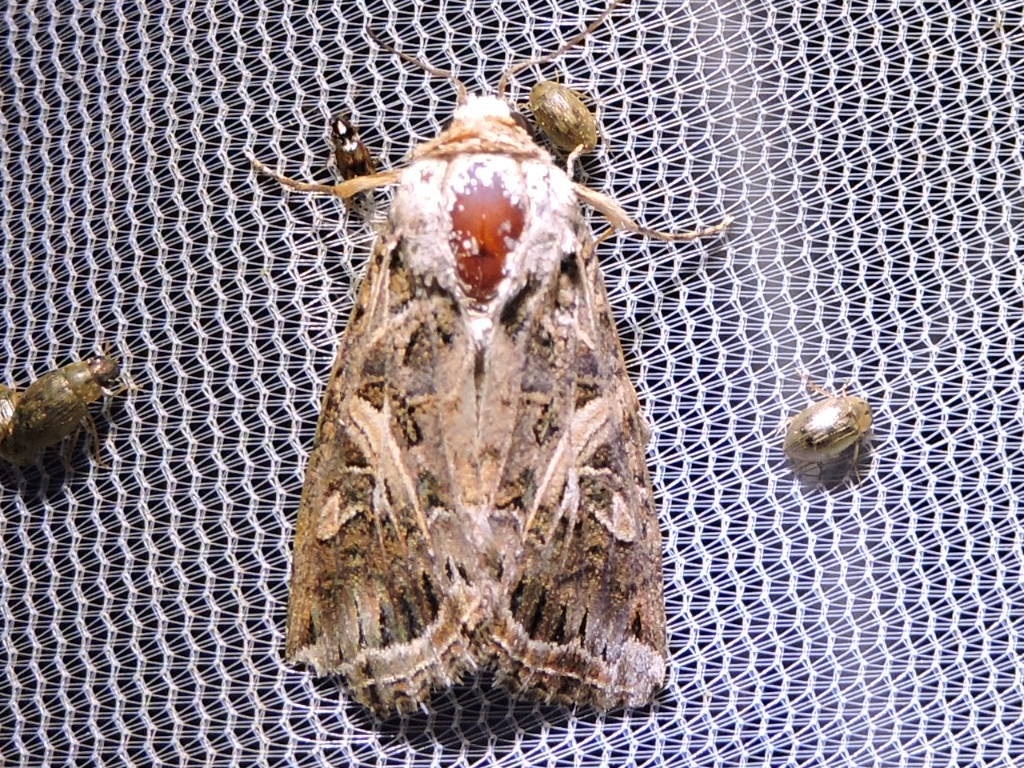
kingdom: Animalia
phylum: Arthropoda
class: Insecta
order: Lepidoptera
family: Noctuidae
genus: Spodoptera
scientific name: Spodoptera ornithogalli
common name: Yellow-striped armyworm
